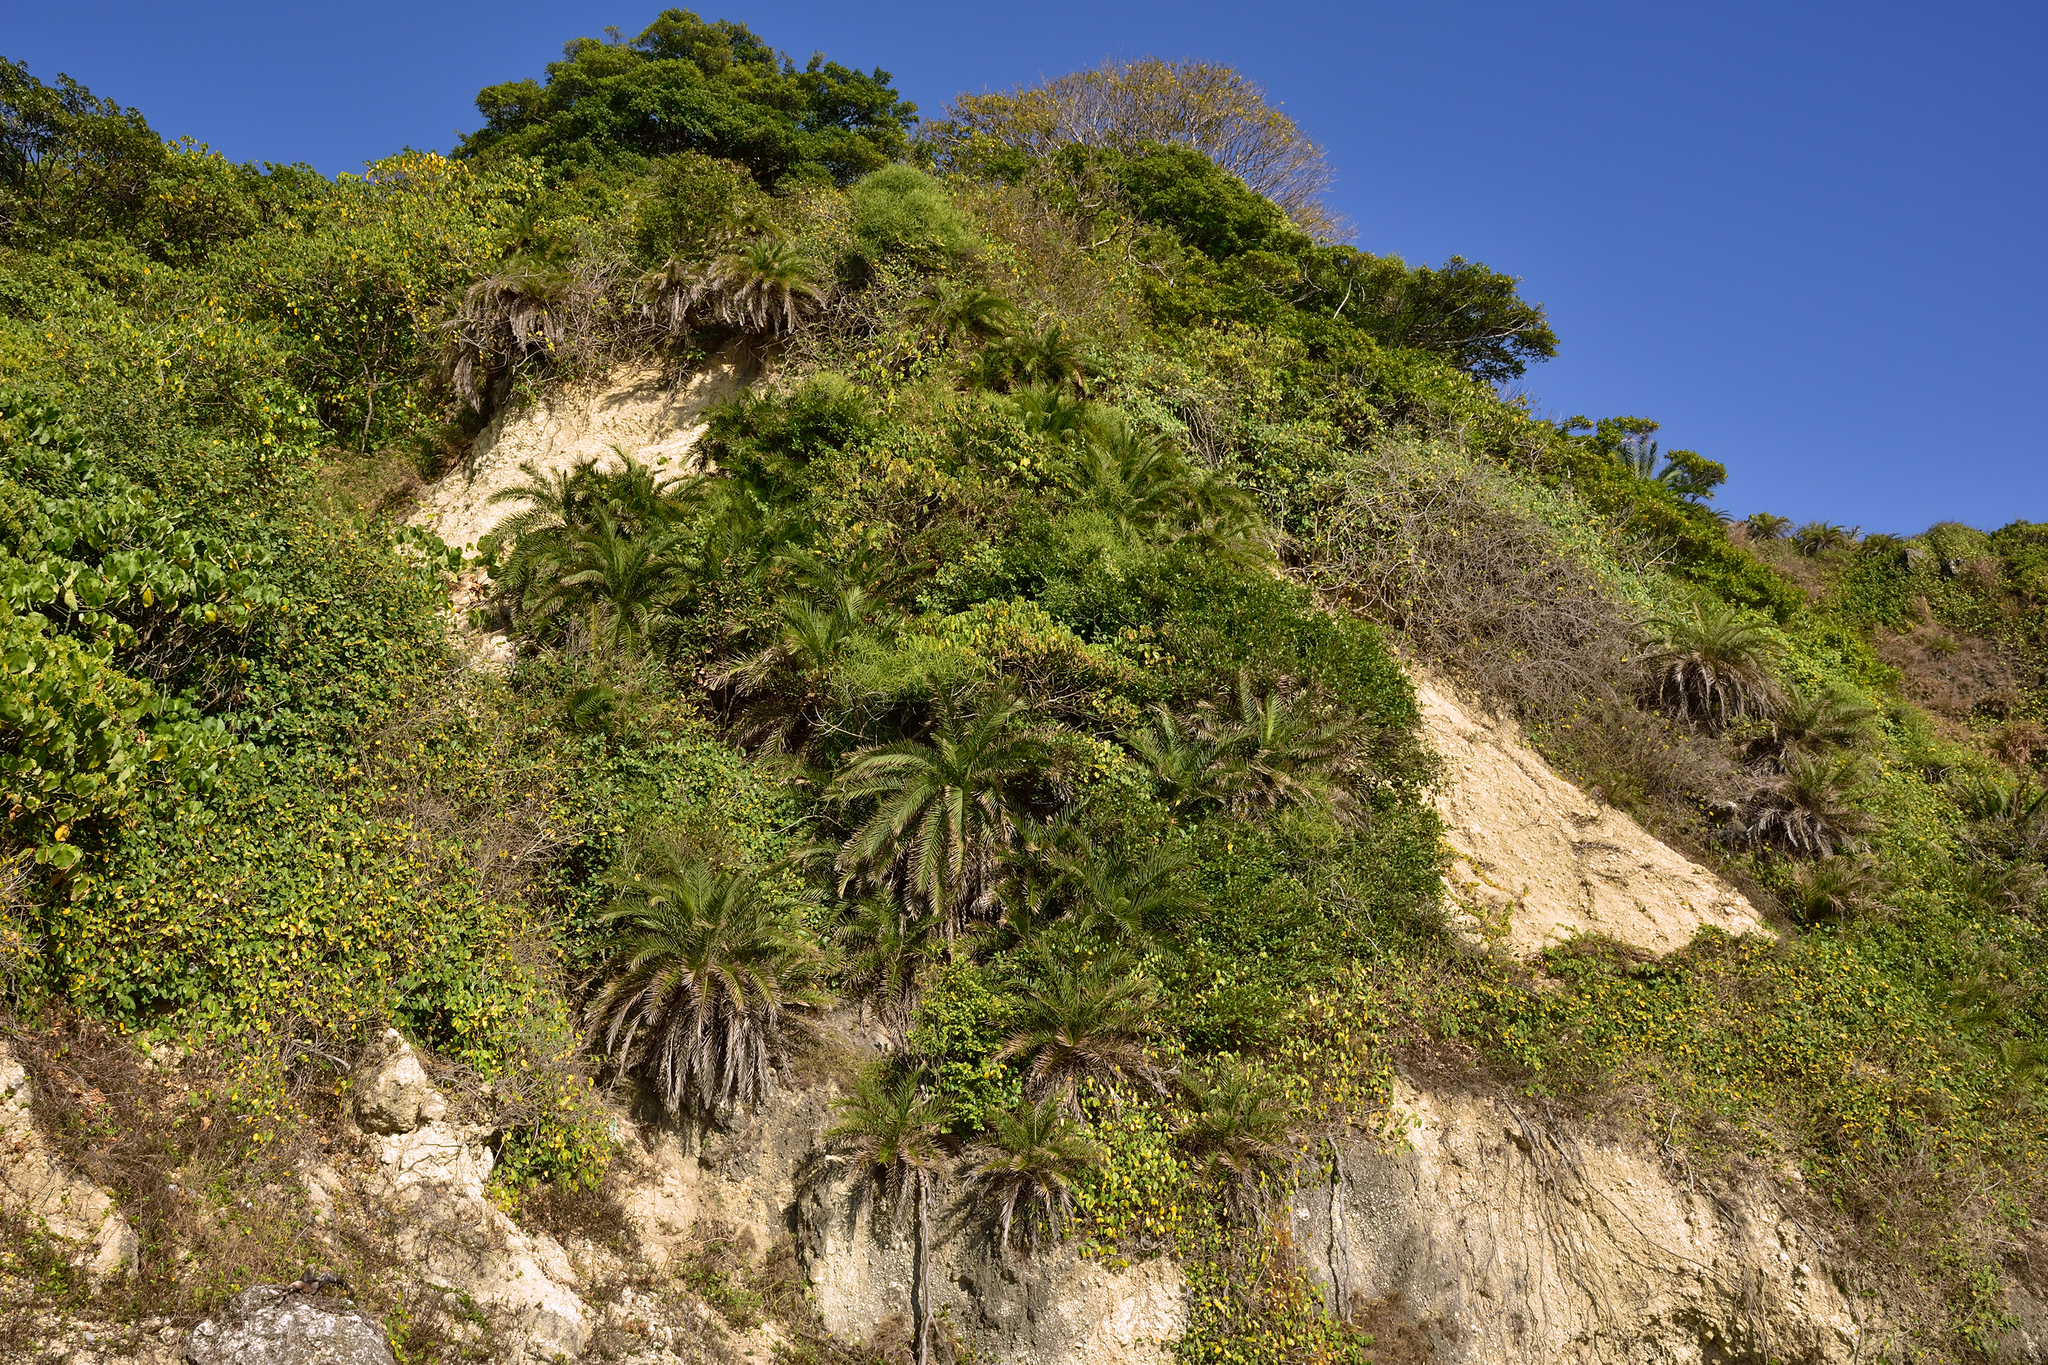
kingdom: Plantae
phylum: Tracheophyta
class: Liliopsida
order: Arecales
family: Arecaceae
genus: Phoenix
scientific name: Phoenix loureiroi
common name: Loureiro's palm
